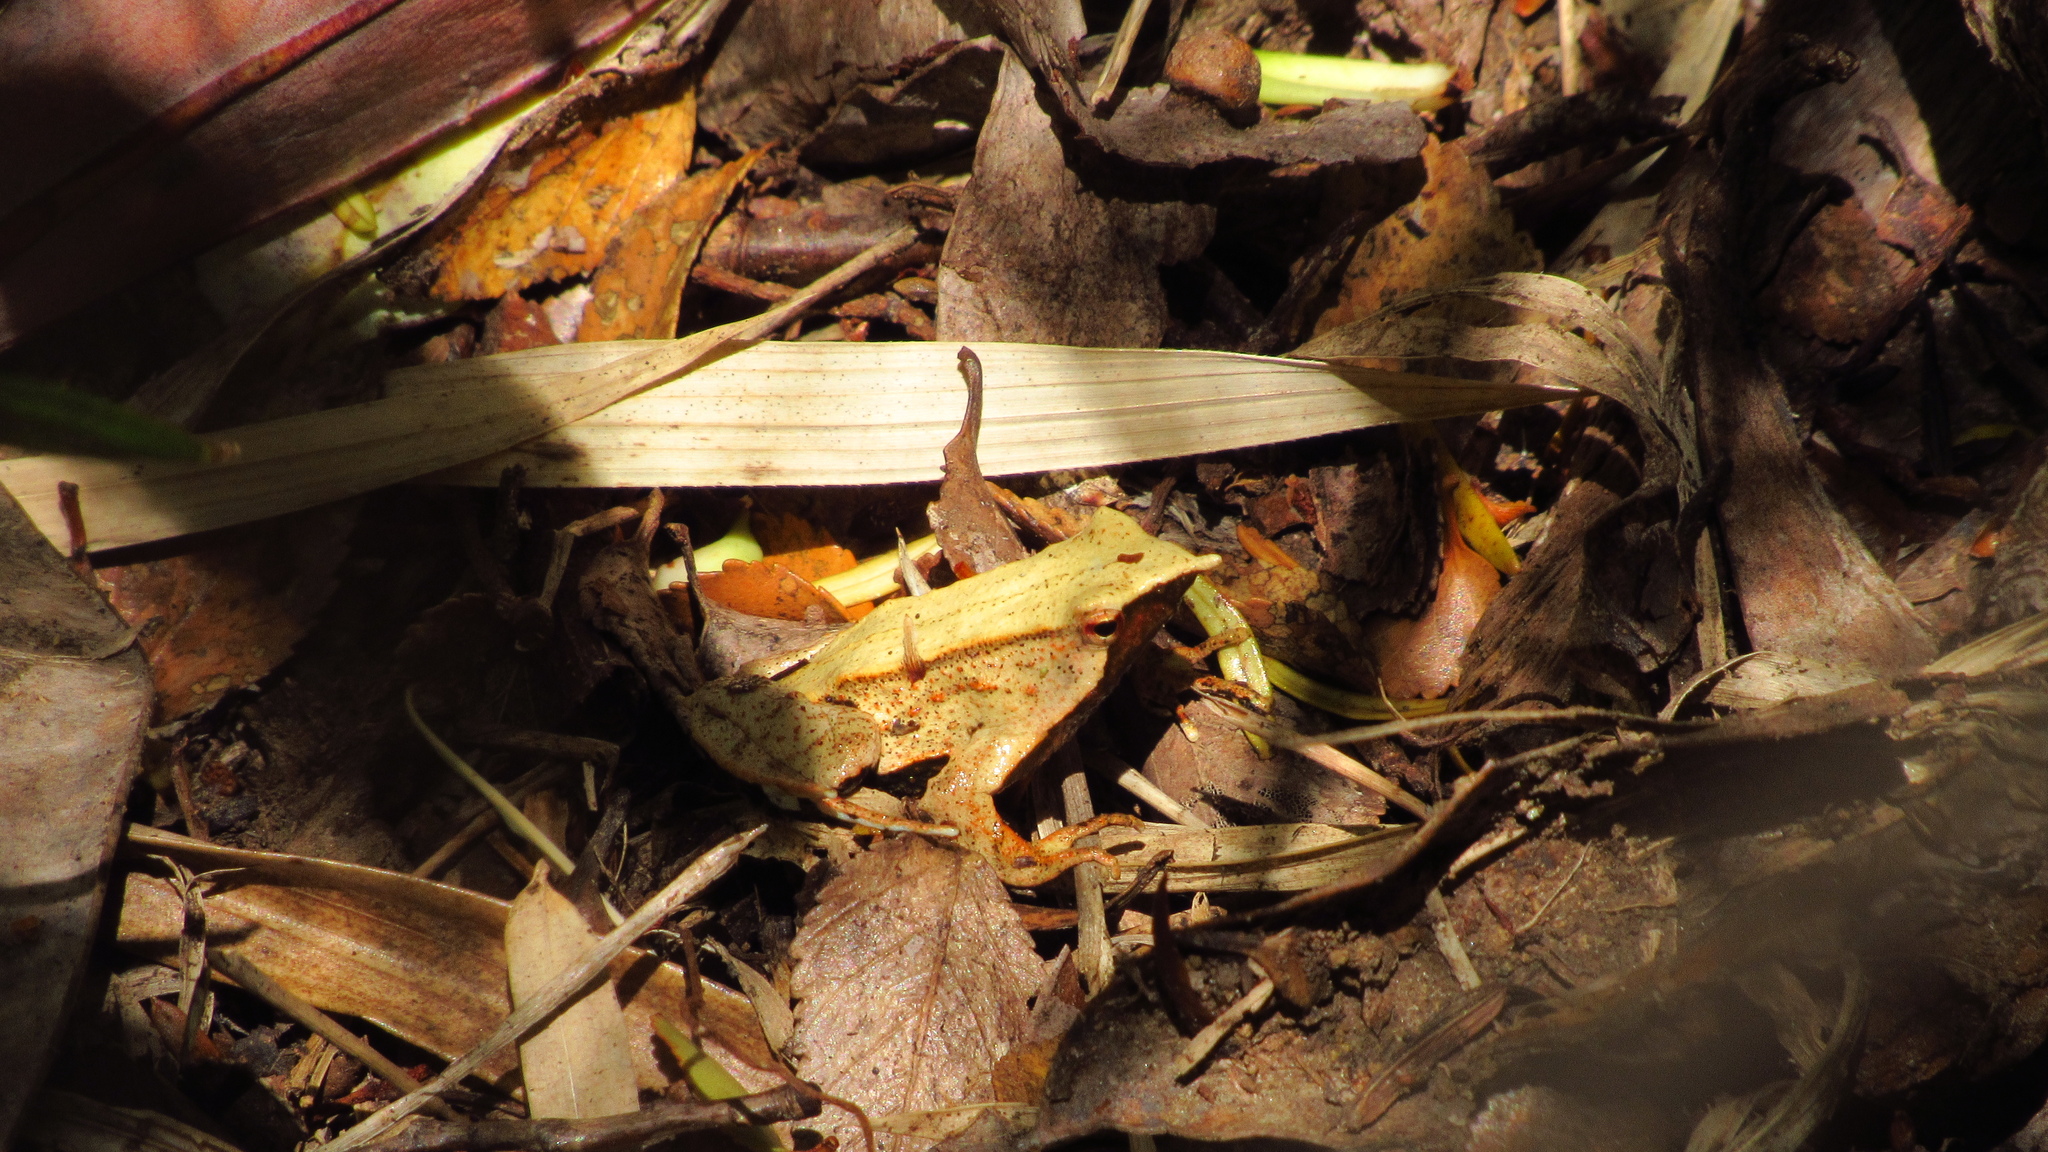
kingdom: Animalia
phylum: Chordata
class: Amphibia
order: Anura
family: Rhinodermatidae
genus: Rhinoderma
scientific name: Rhinoderma darwinii
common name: Darwin's frog
